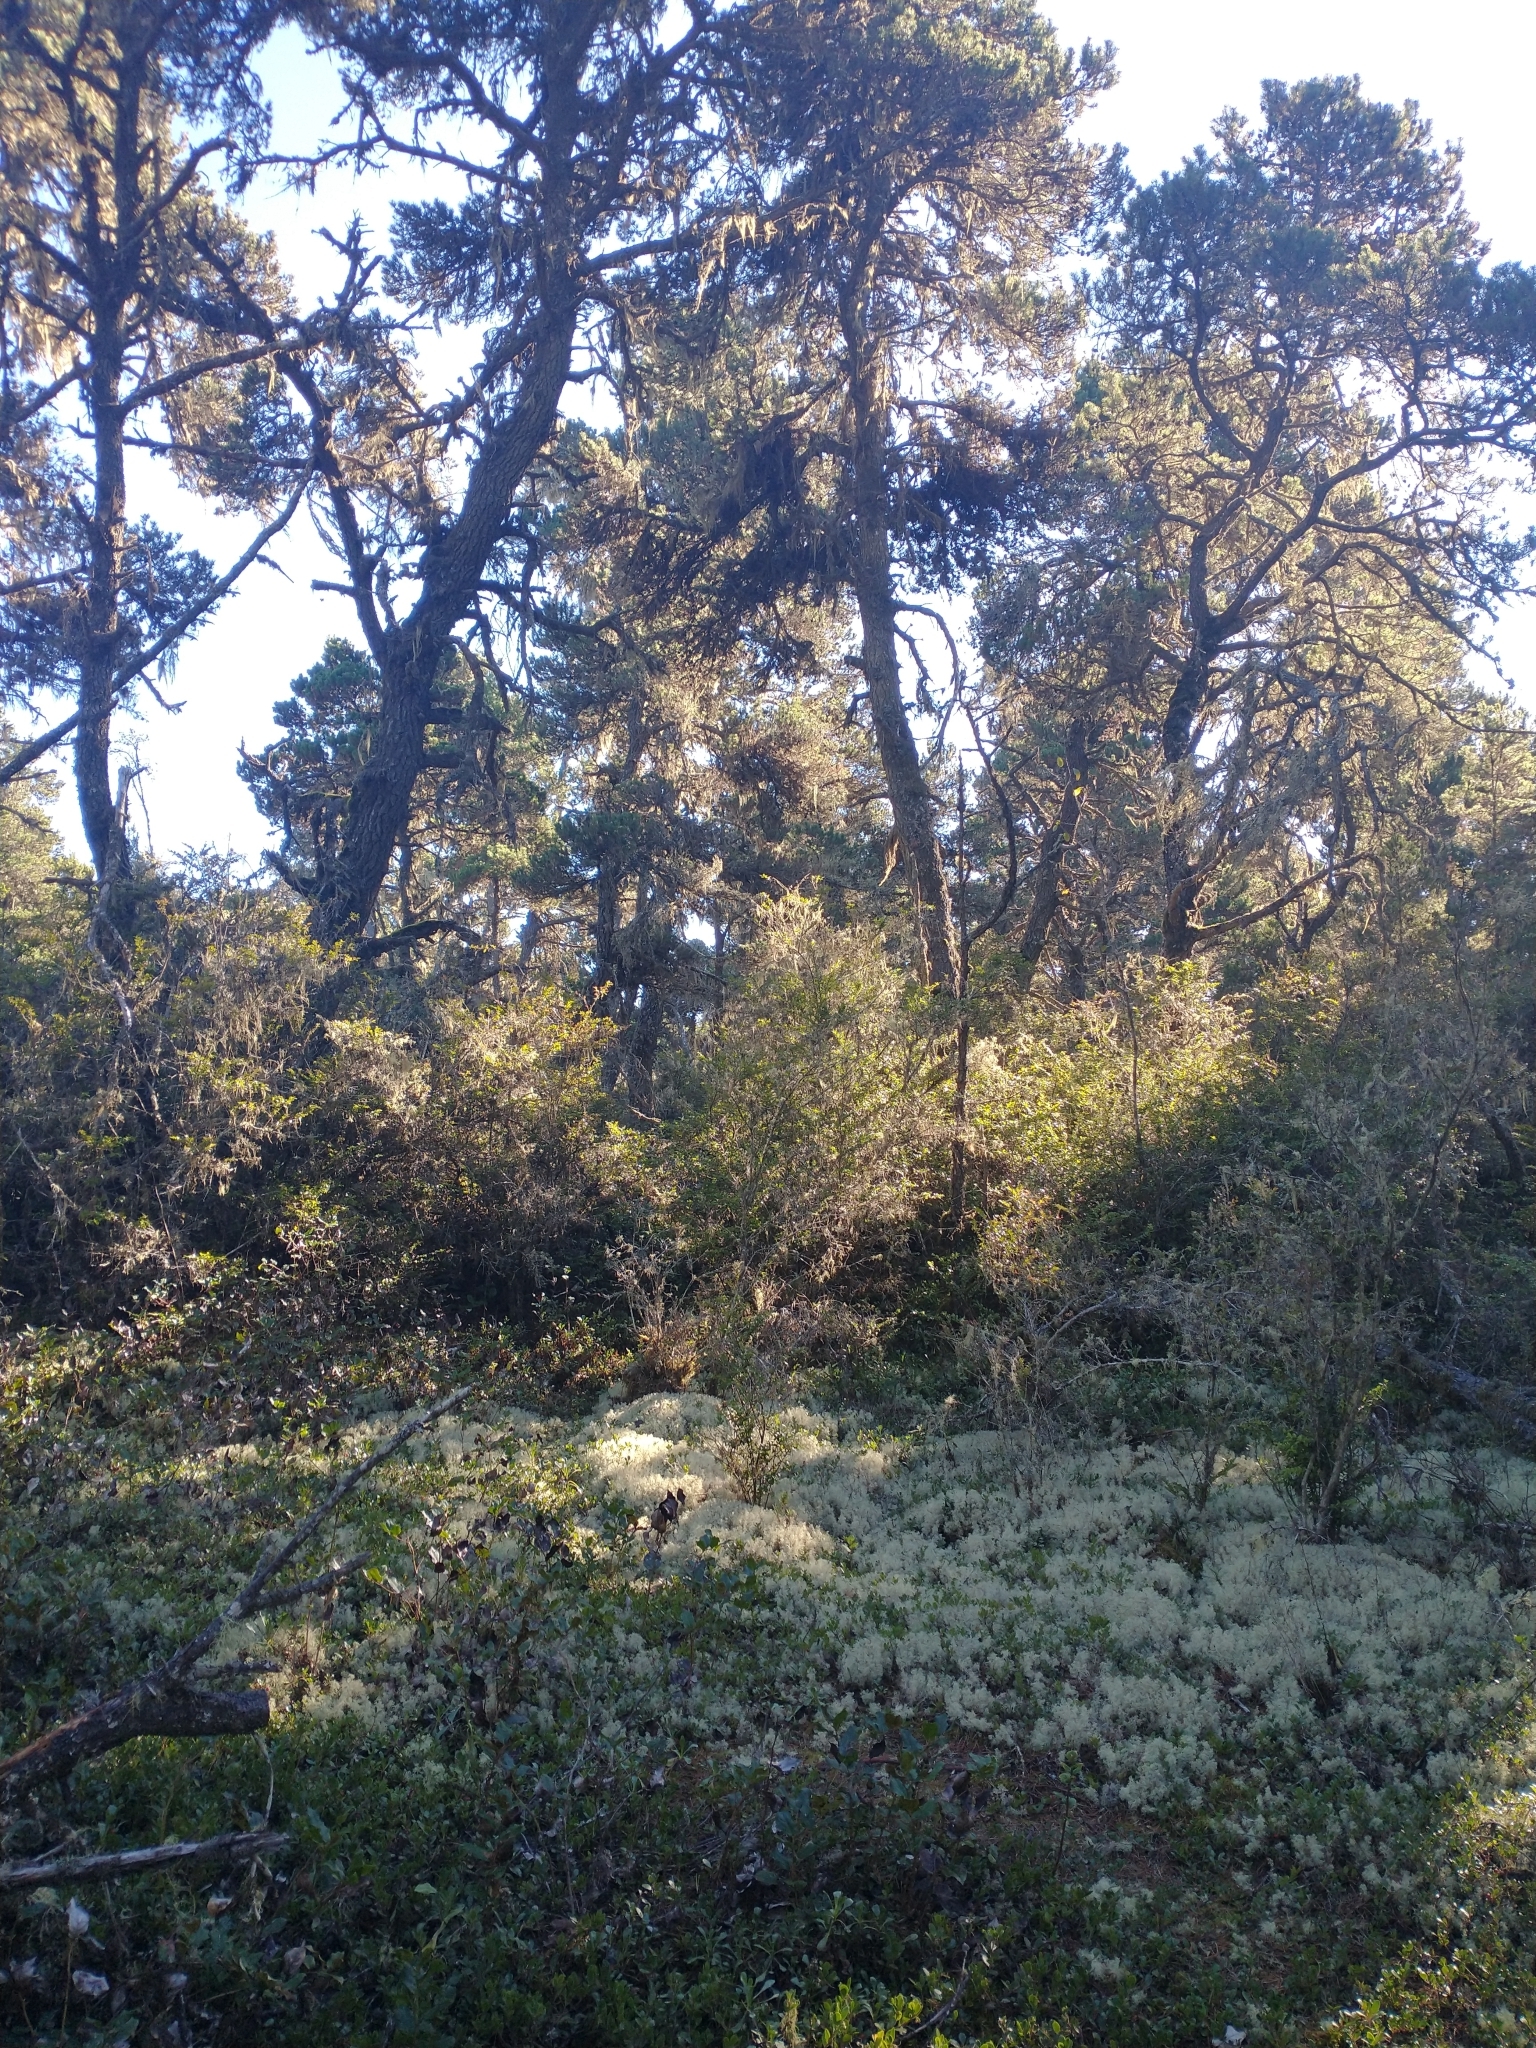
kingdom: Plantae
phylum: Tracheophyta
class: Magnoliopsida
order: Ericales
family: Ericaceae
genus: Arctostaphylos
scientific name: Arctostaphylos uva-ursi
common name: Bearberry
